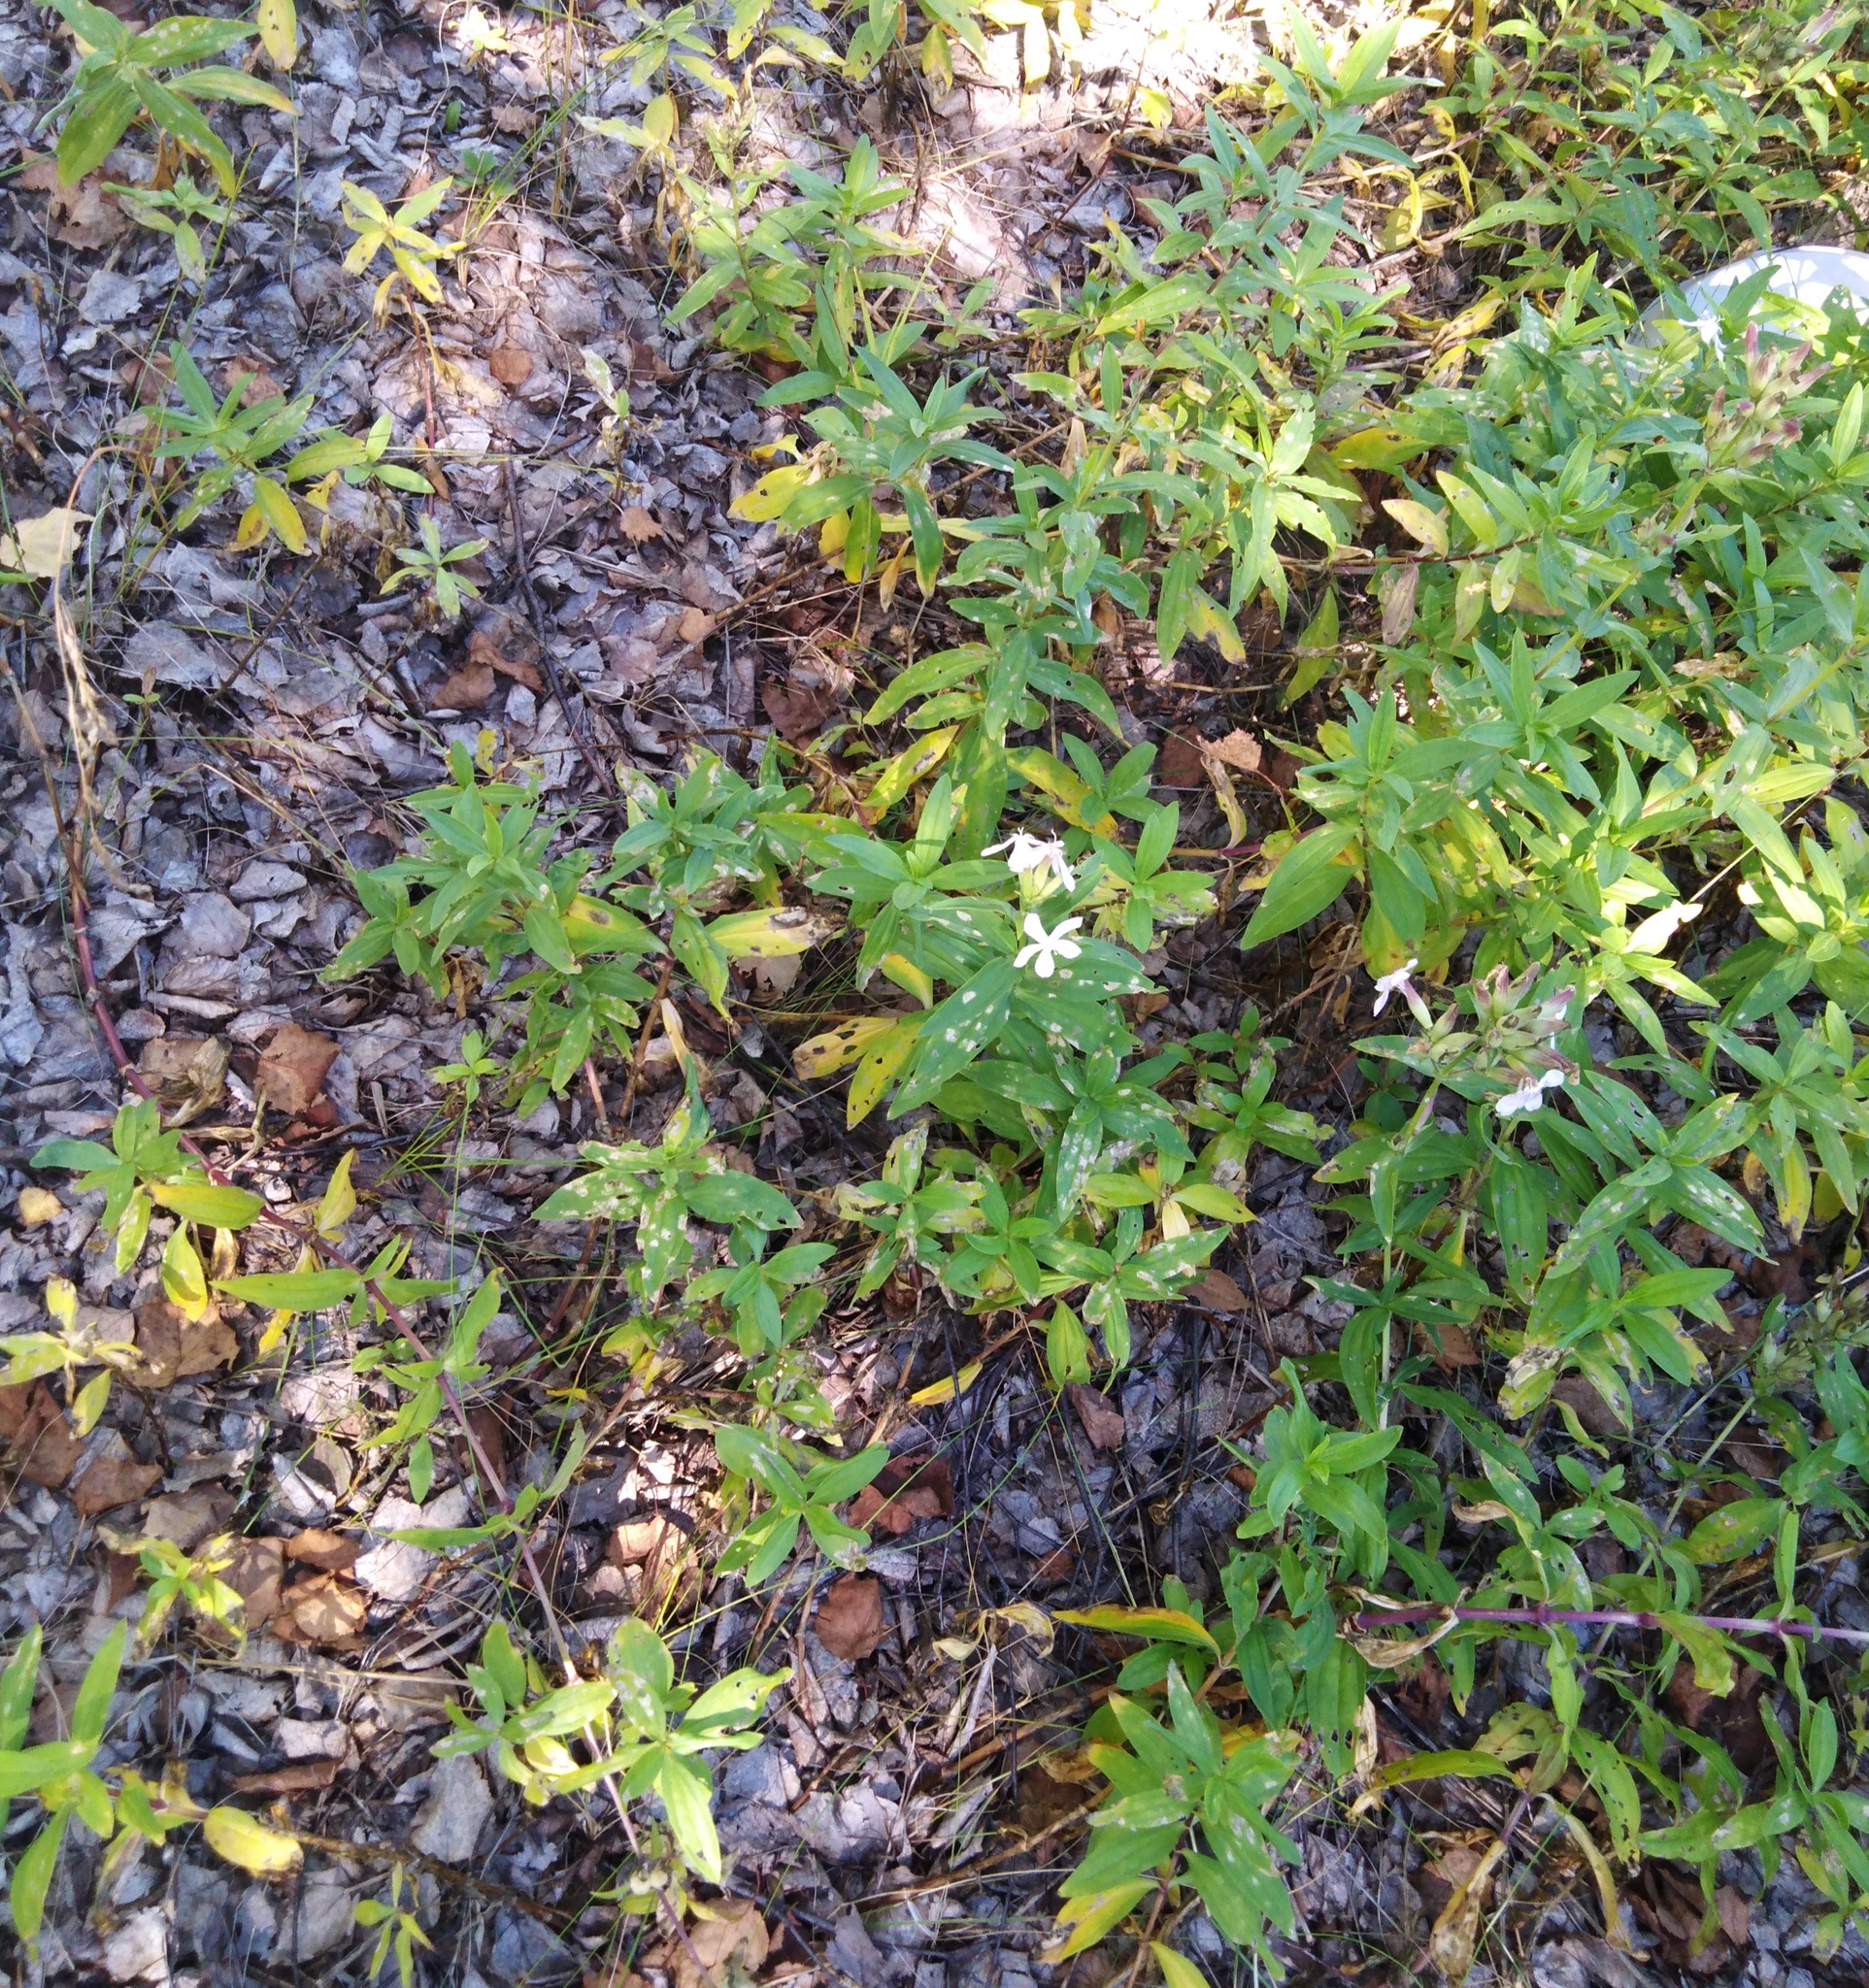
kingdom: Plantae
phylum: Tracheophyta
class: Magnoliopsida
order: Caryophyllales
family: Caryophyllaceae
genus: Saponaria
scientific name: Saponaria officinalis
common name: Soapwort
